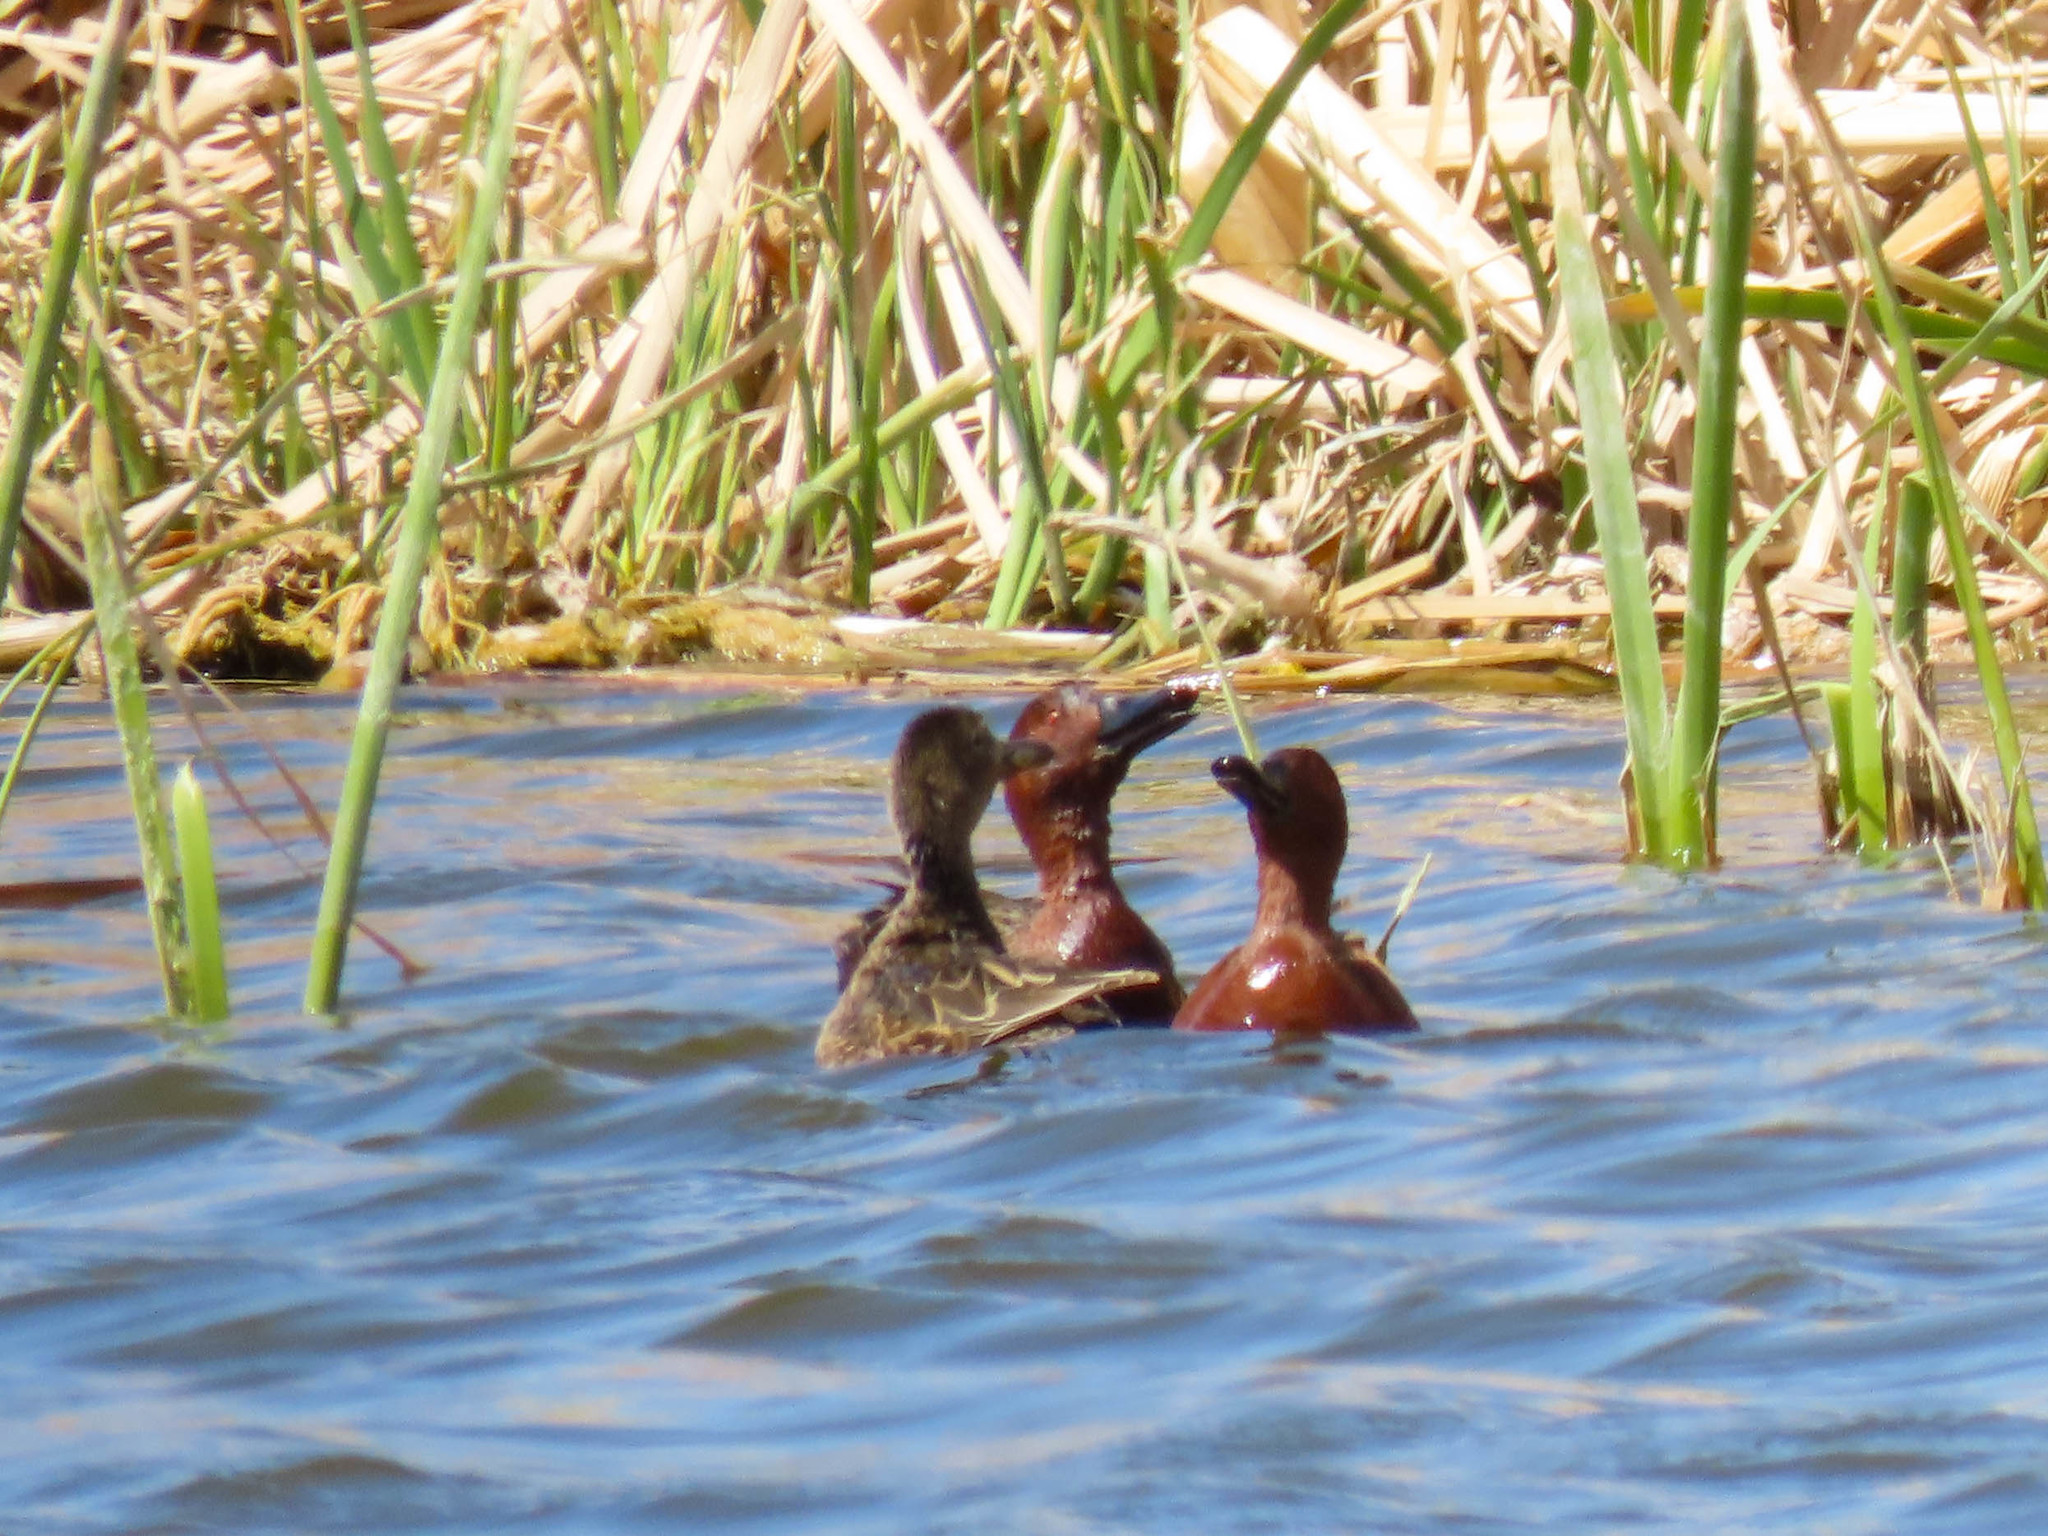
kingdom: Animalia
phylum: Chordata
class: Aves
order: Anseriformes
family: Anatidae
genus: Spatula
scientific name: Spatula cyanoptera
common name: Cinnamon teal
